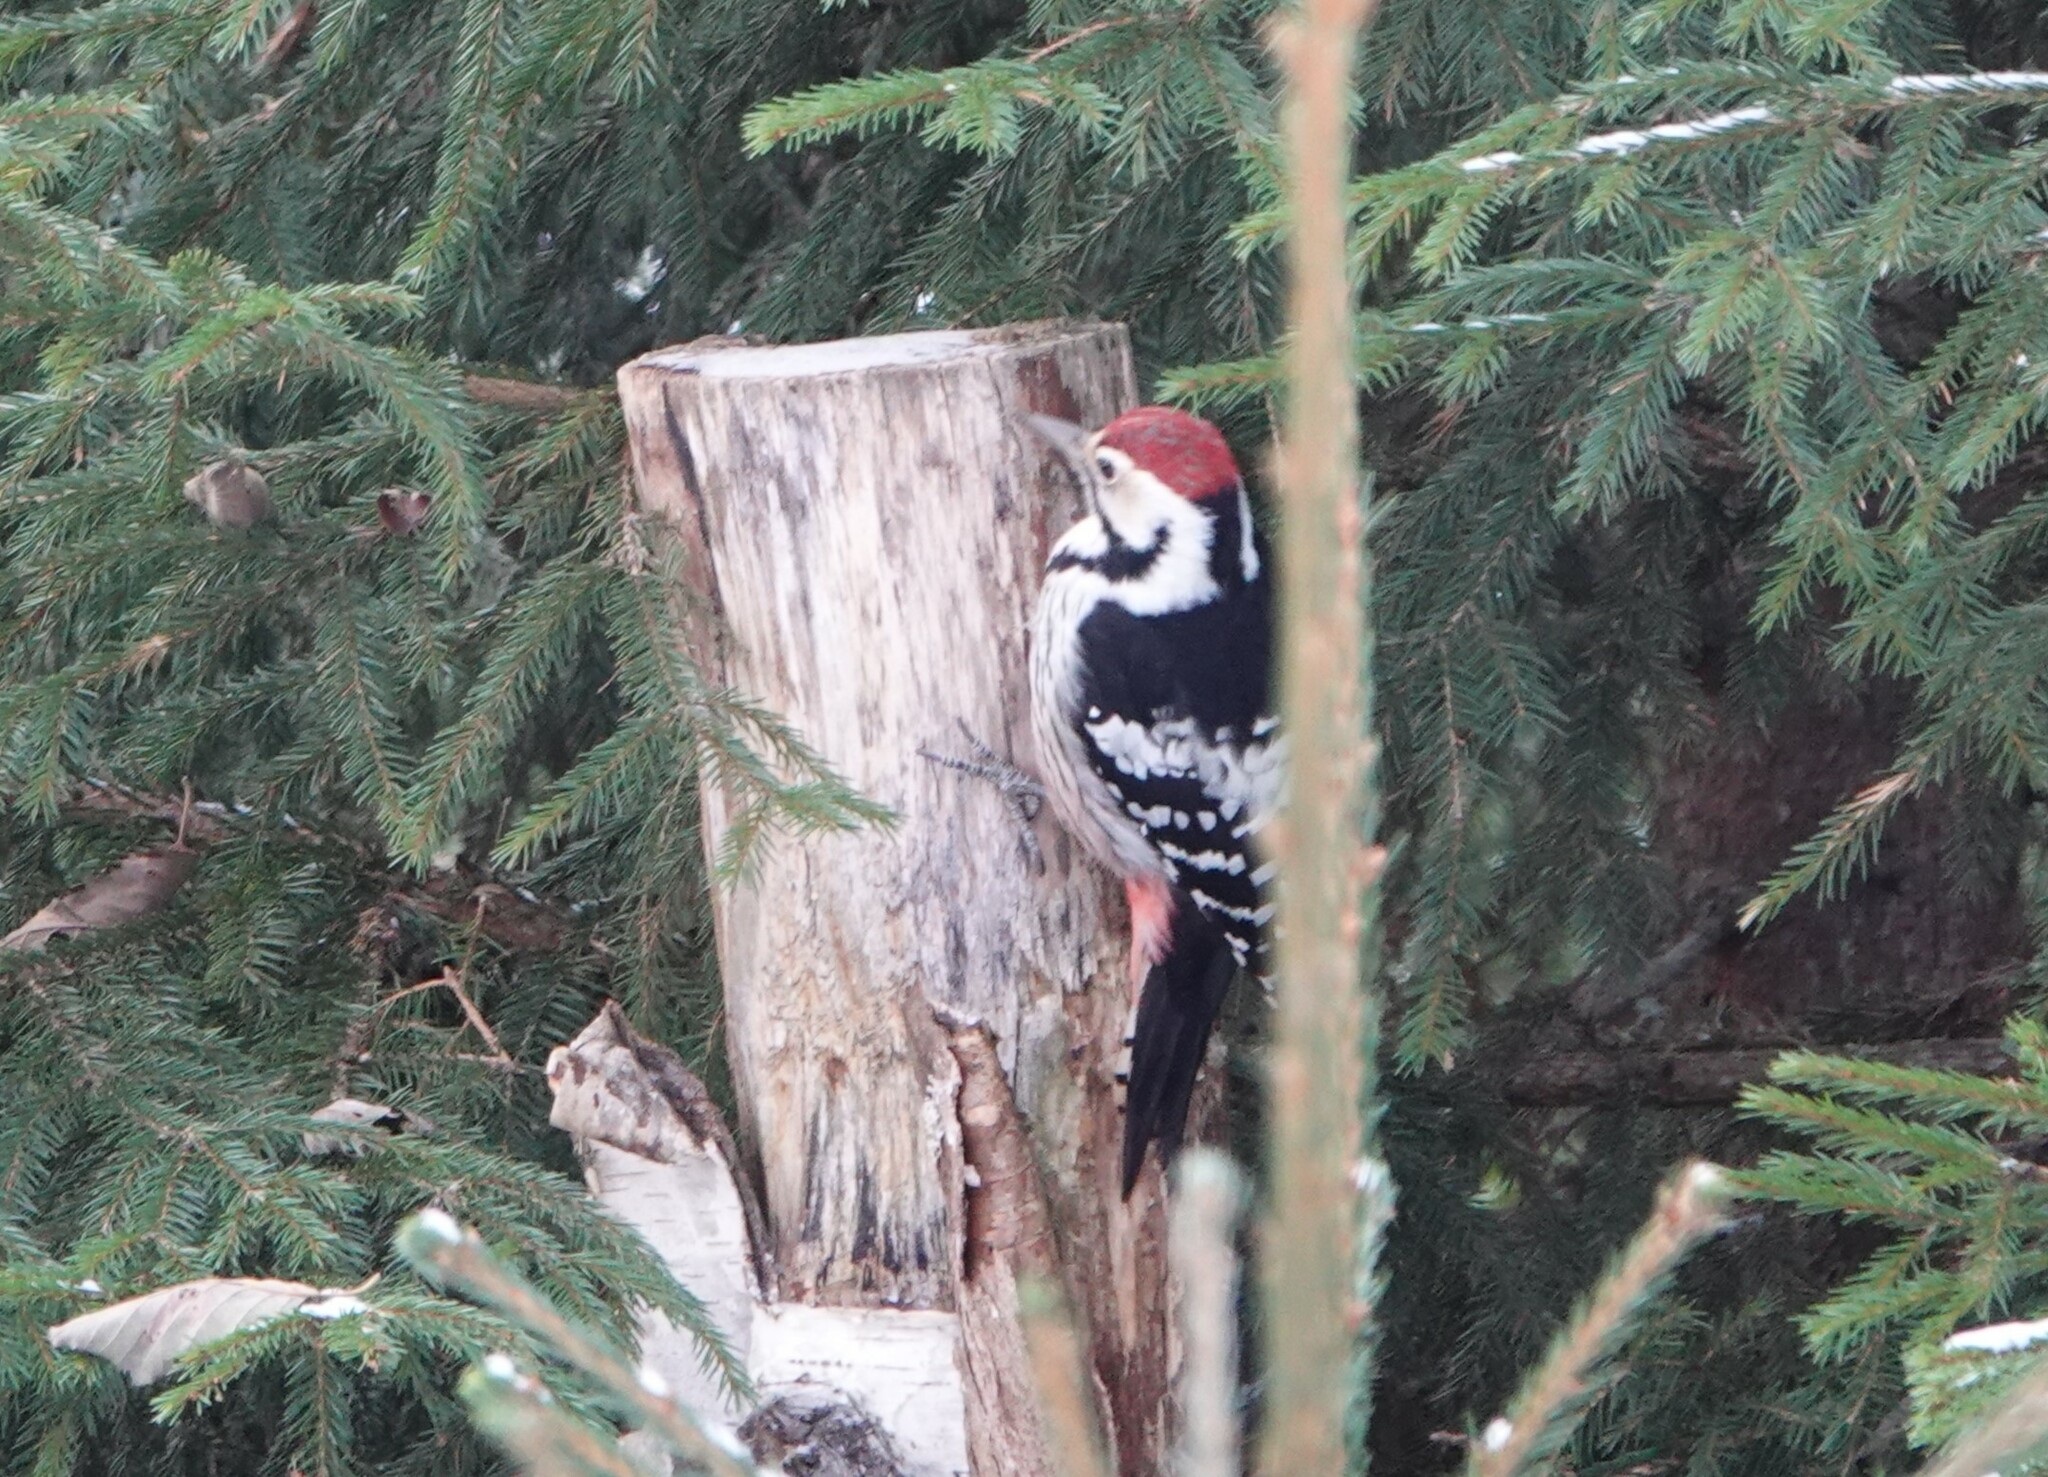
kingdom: Animalia
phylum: Chordata
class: Aves
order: Piciformes
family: Picidae
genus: Dendrocopos
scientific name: Dendrocopos leucotos
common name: White-backed woodpecker
